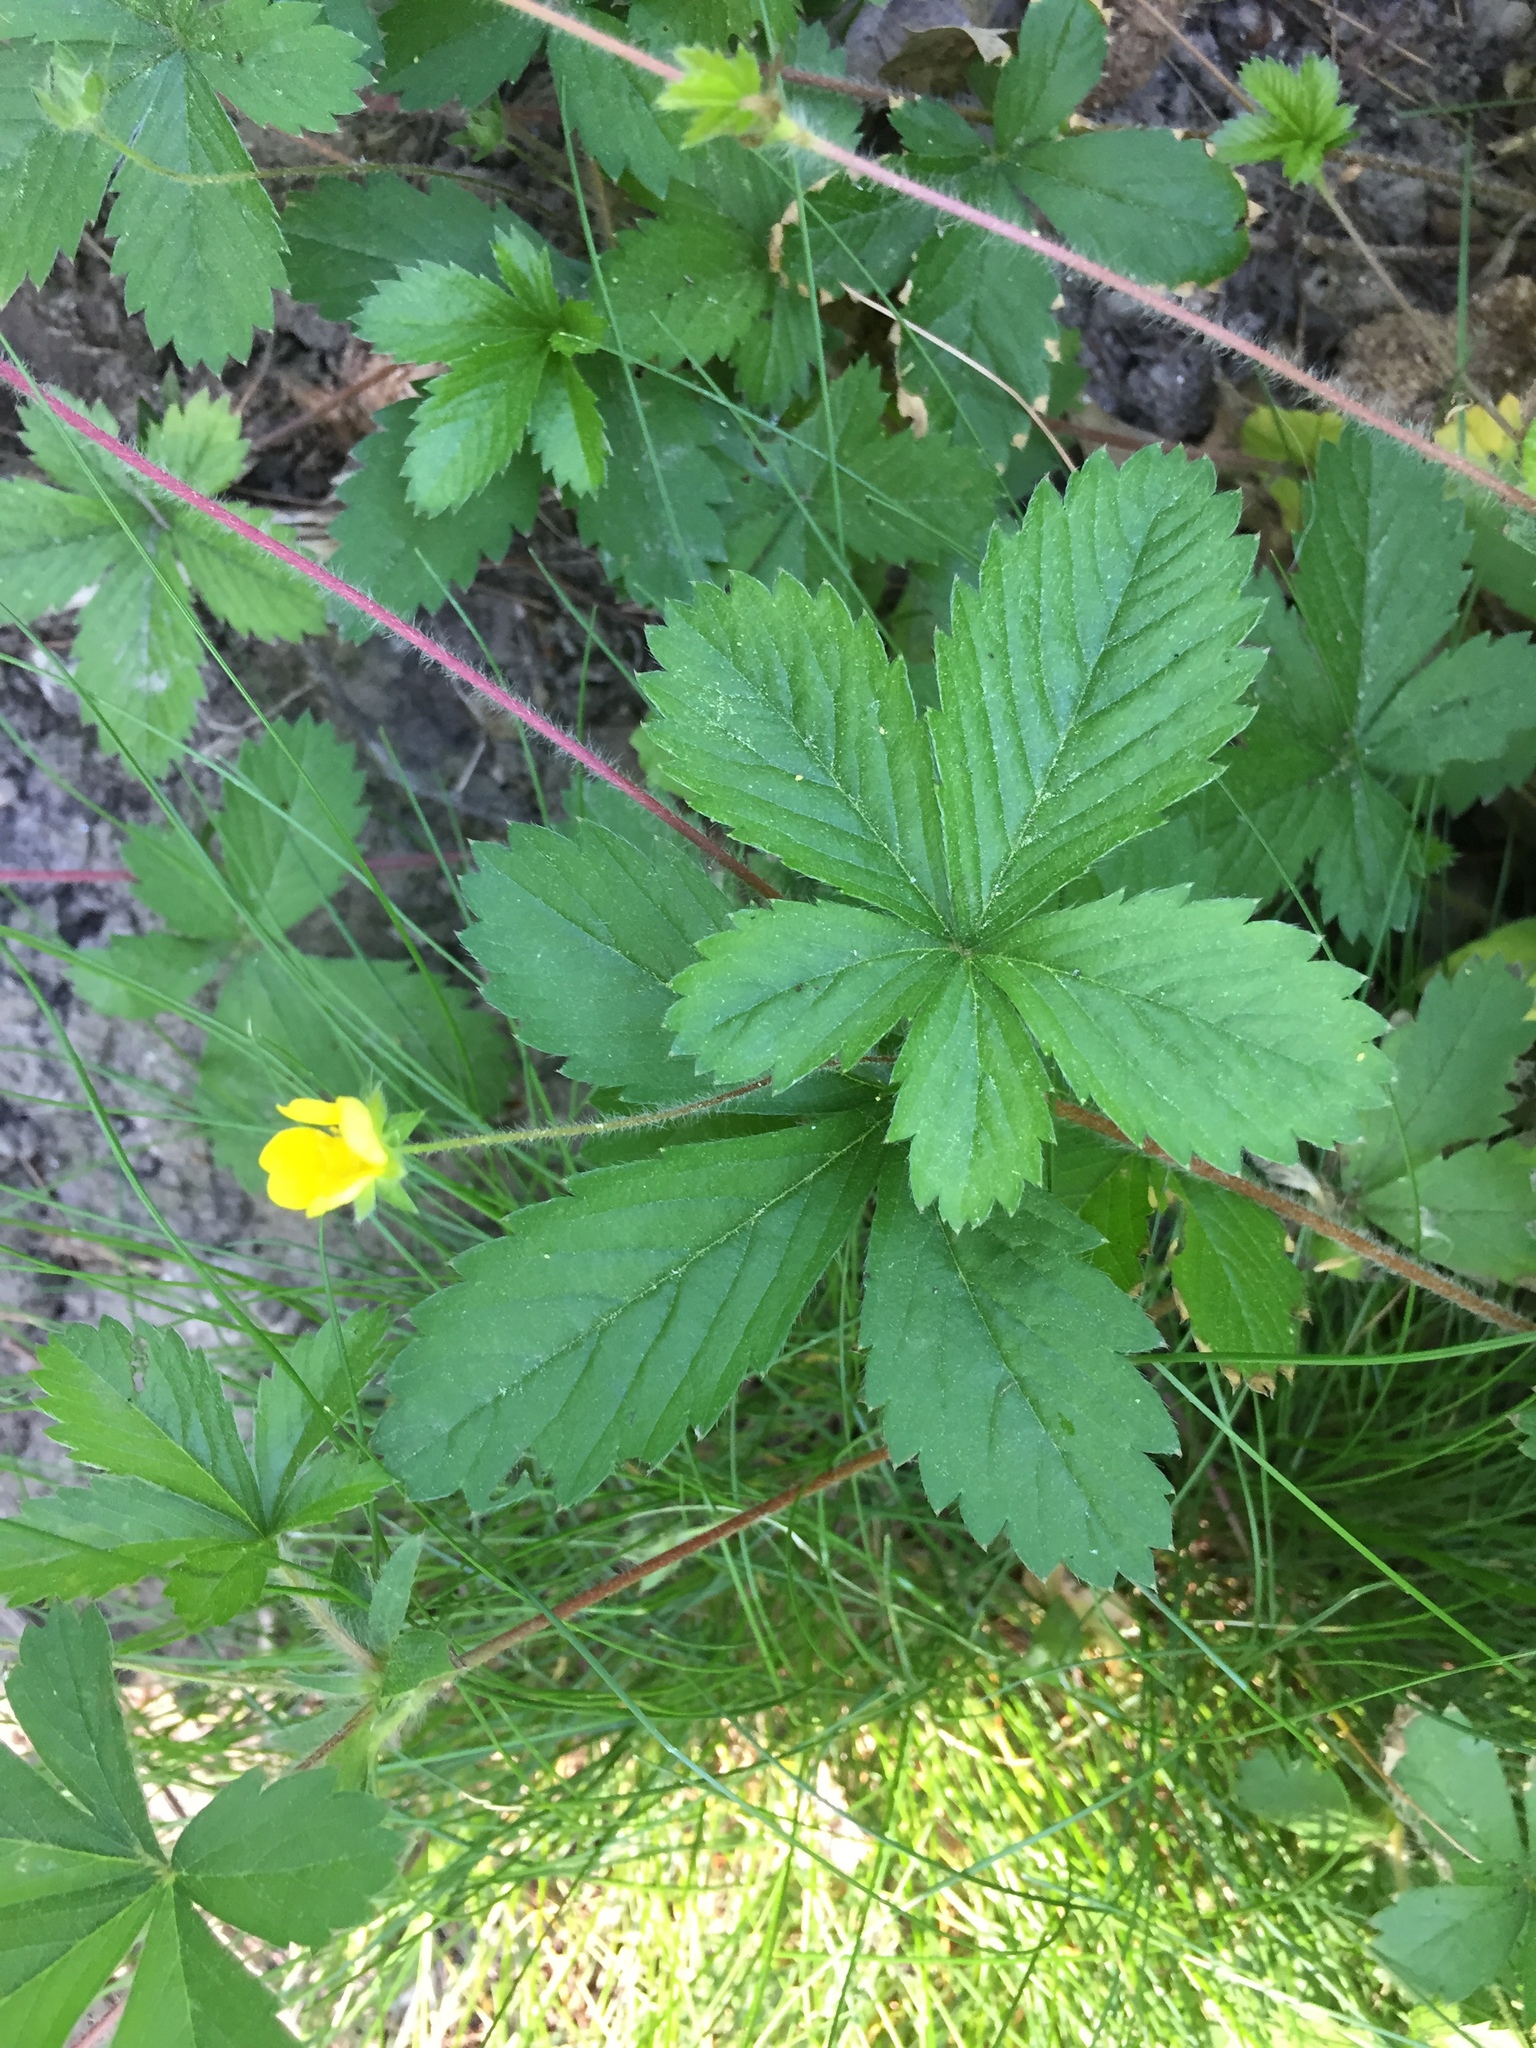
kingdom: Plantae
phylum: Tracheophyta
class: Magnoliopsida
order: Rosales
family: Rosaceae
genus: Potentilla
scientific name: Potentilla simplex
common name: Old field cinquefoil
